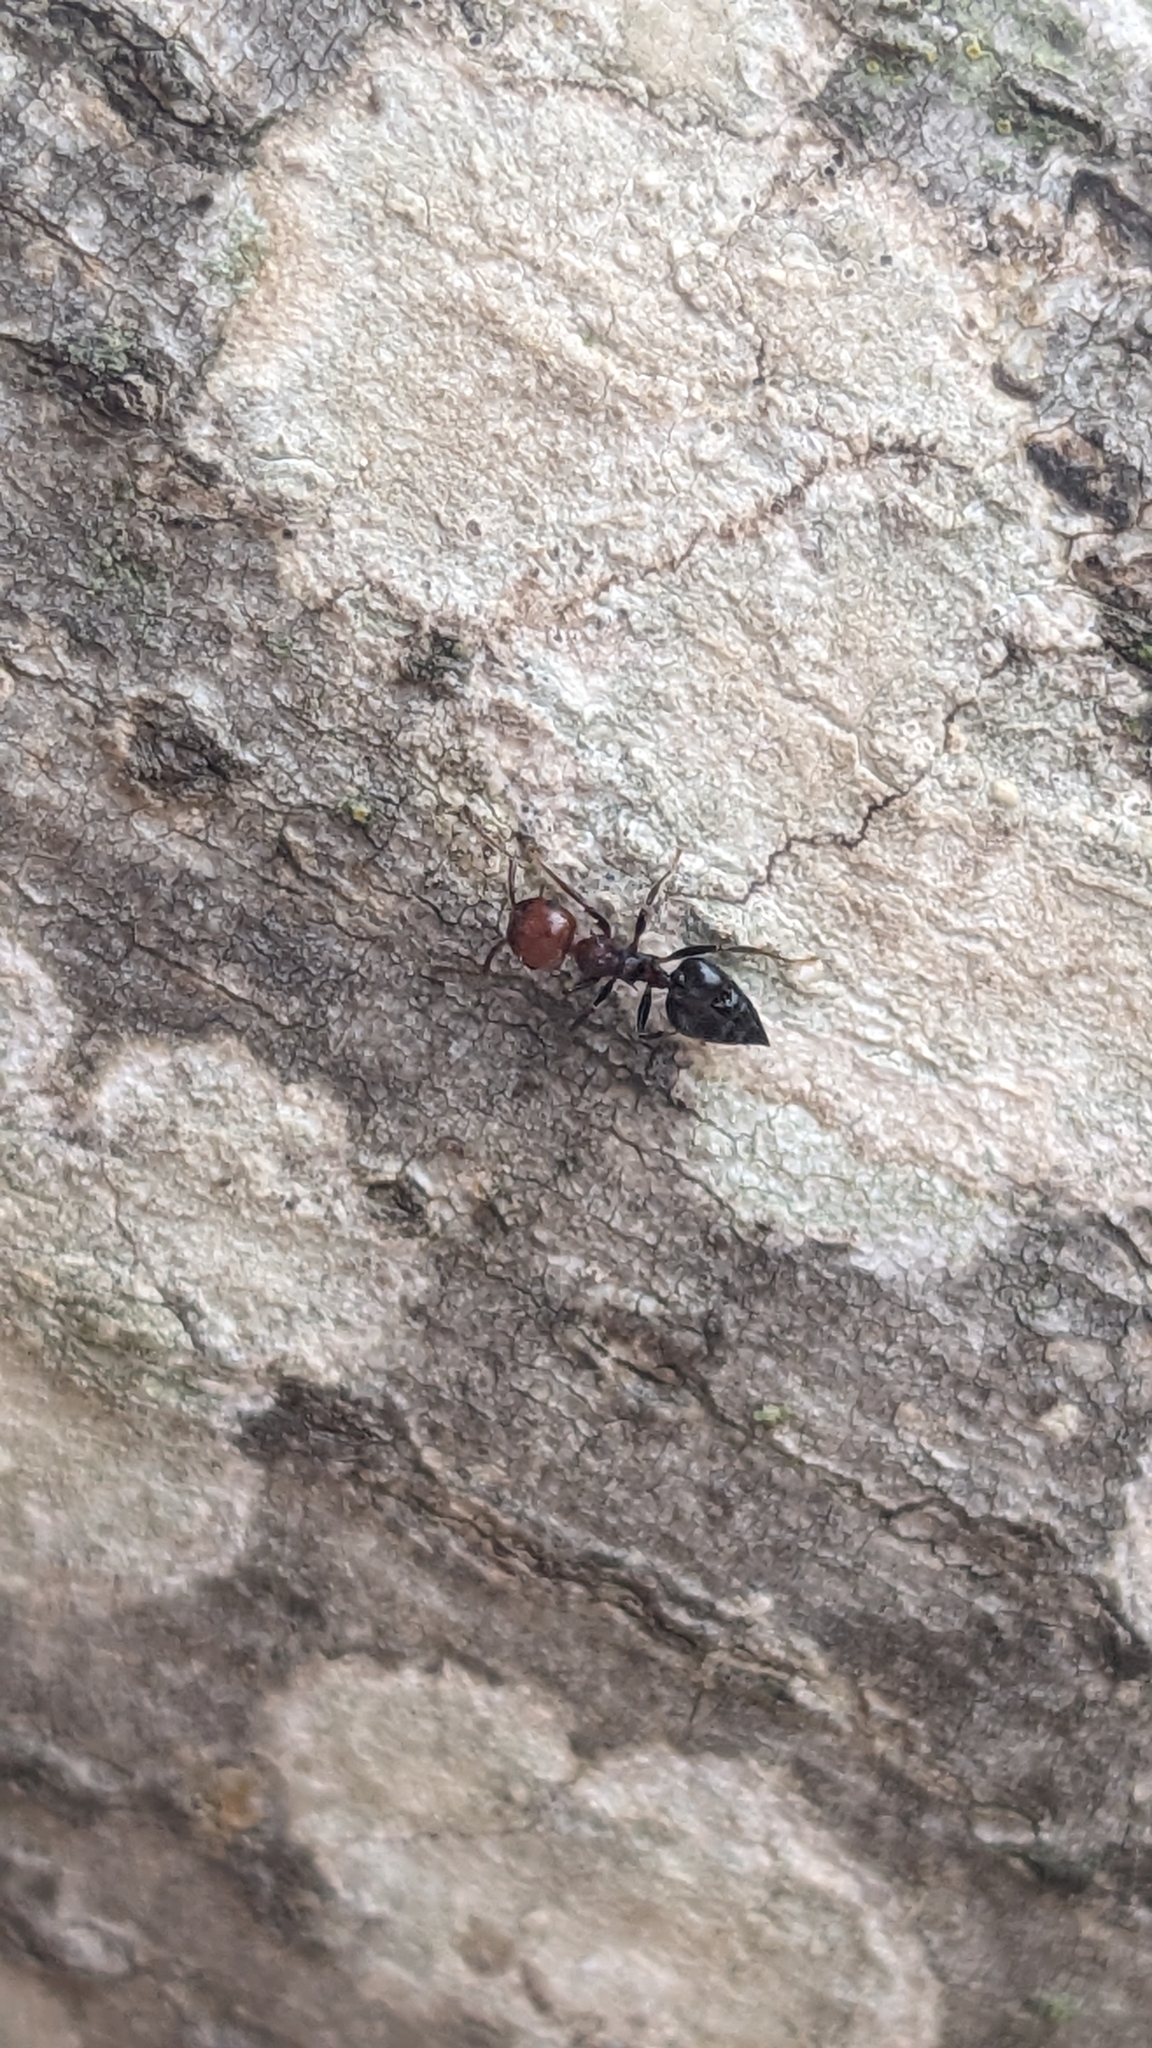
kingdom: Animalia
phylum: Arthropoda
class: Insecta
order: Hymenoptera
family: Formicidae
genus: Crematogaster
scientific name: Crematogaster scutellaris
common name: Fourmi du liège
